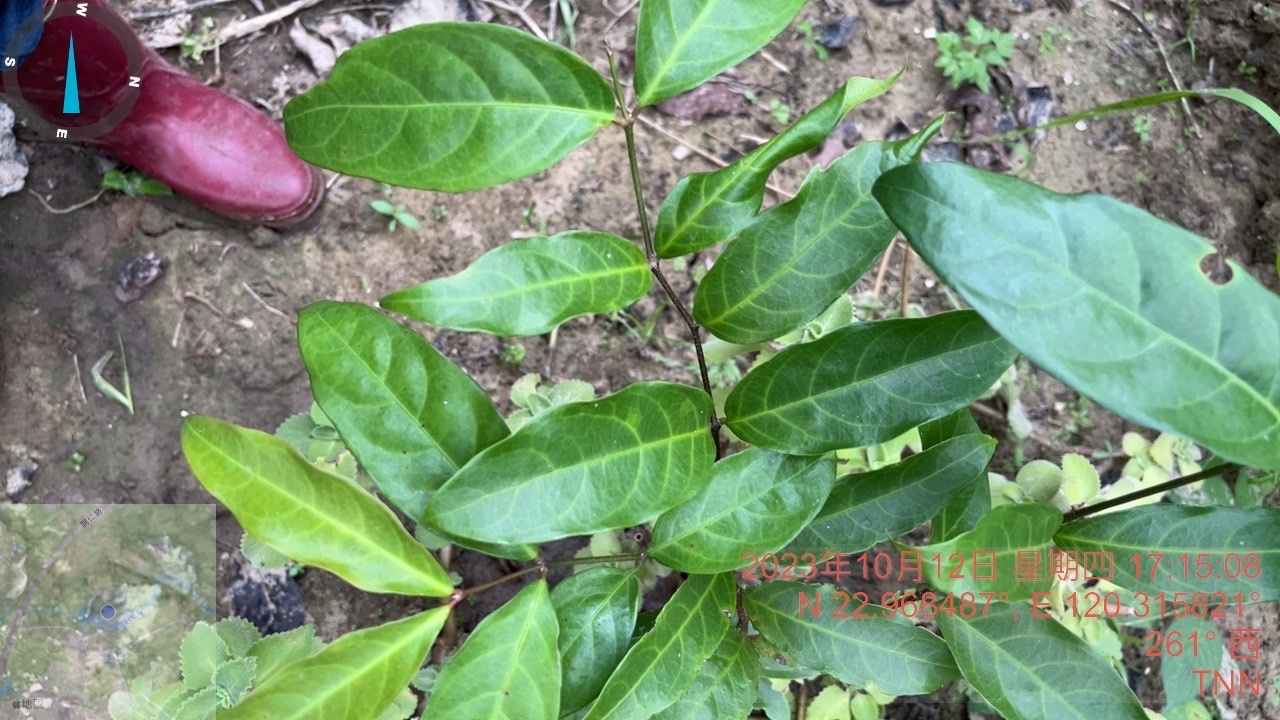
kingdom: Plantae
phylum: Tracheophyta
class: Magnoliopsida
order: Malpighiales
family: Malpighiaceae
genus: Hiptage
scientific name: Hiptage benghalensis
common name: Hiptage
